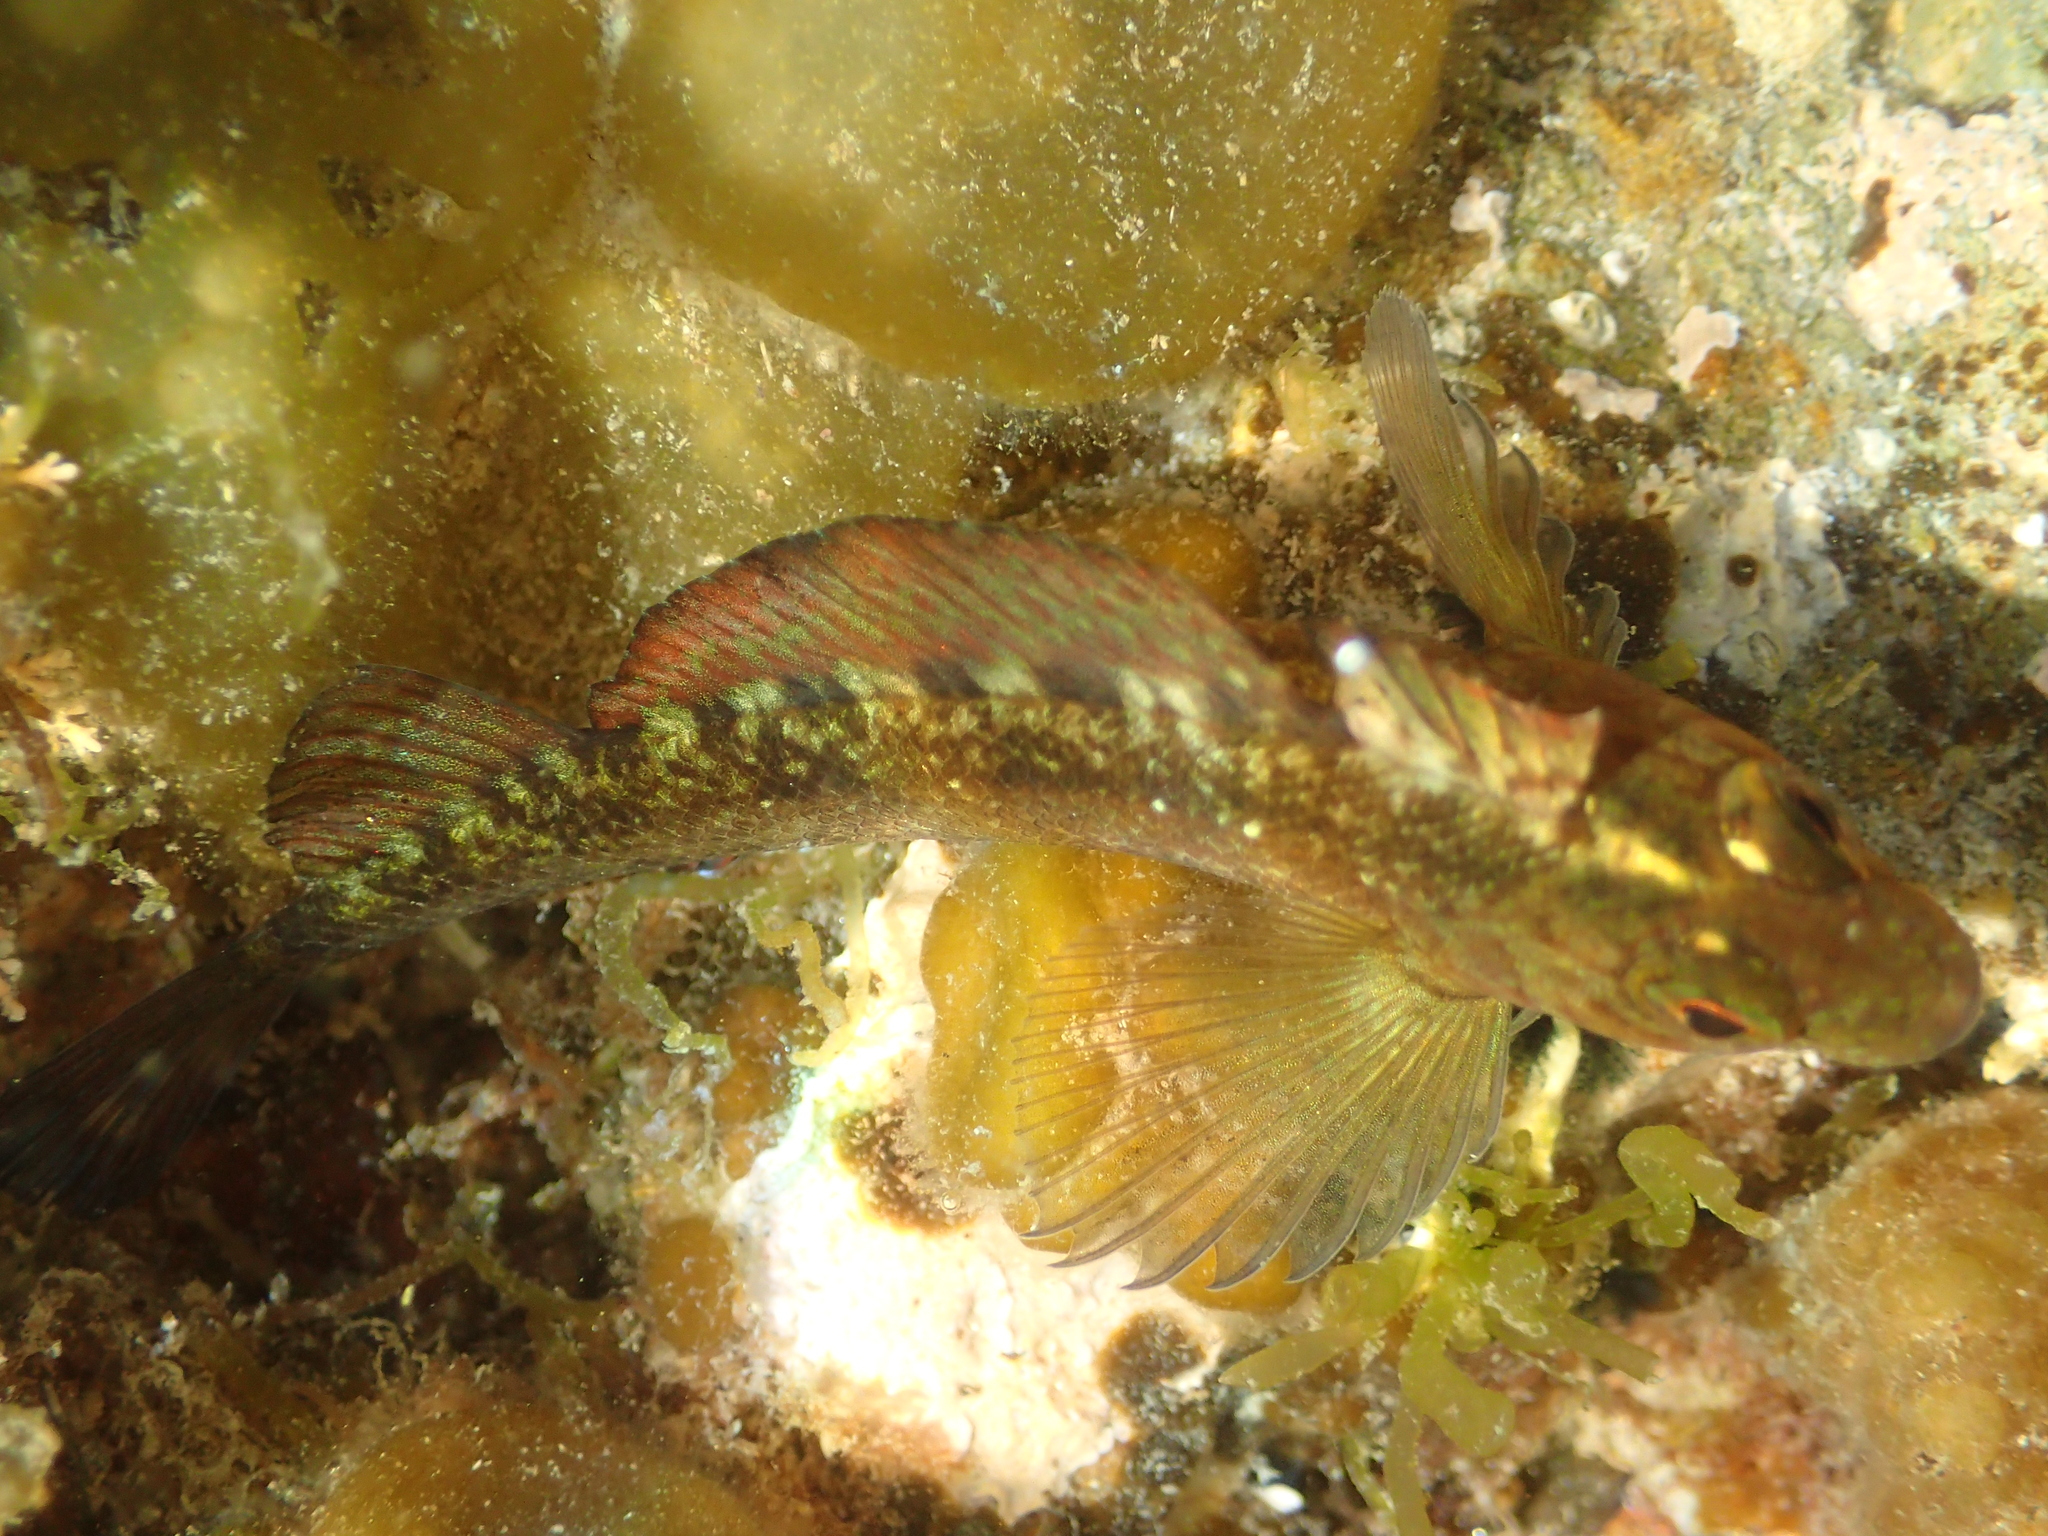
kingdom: Animalia
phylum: Chordata
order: Perciformes
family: Tripterygiidae
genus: Forsterygion
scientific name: Forsterygion lapillum
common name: Common triplefin
